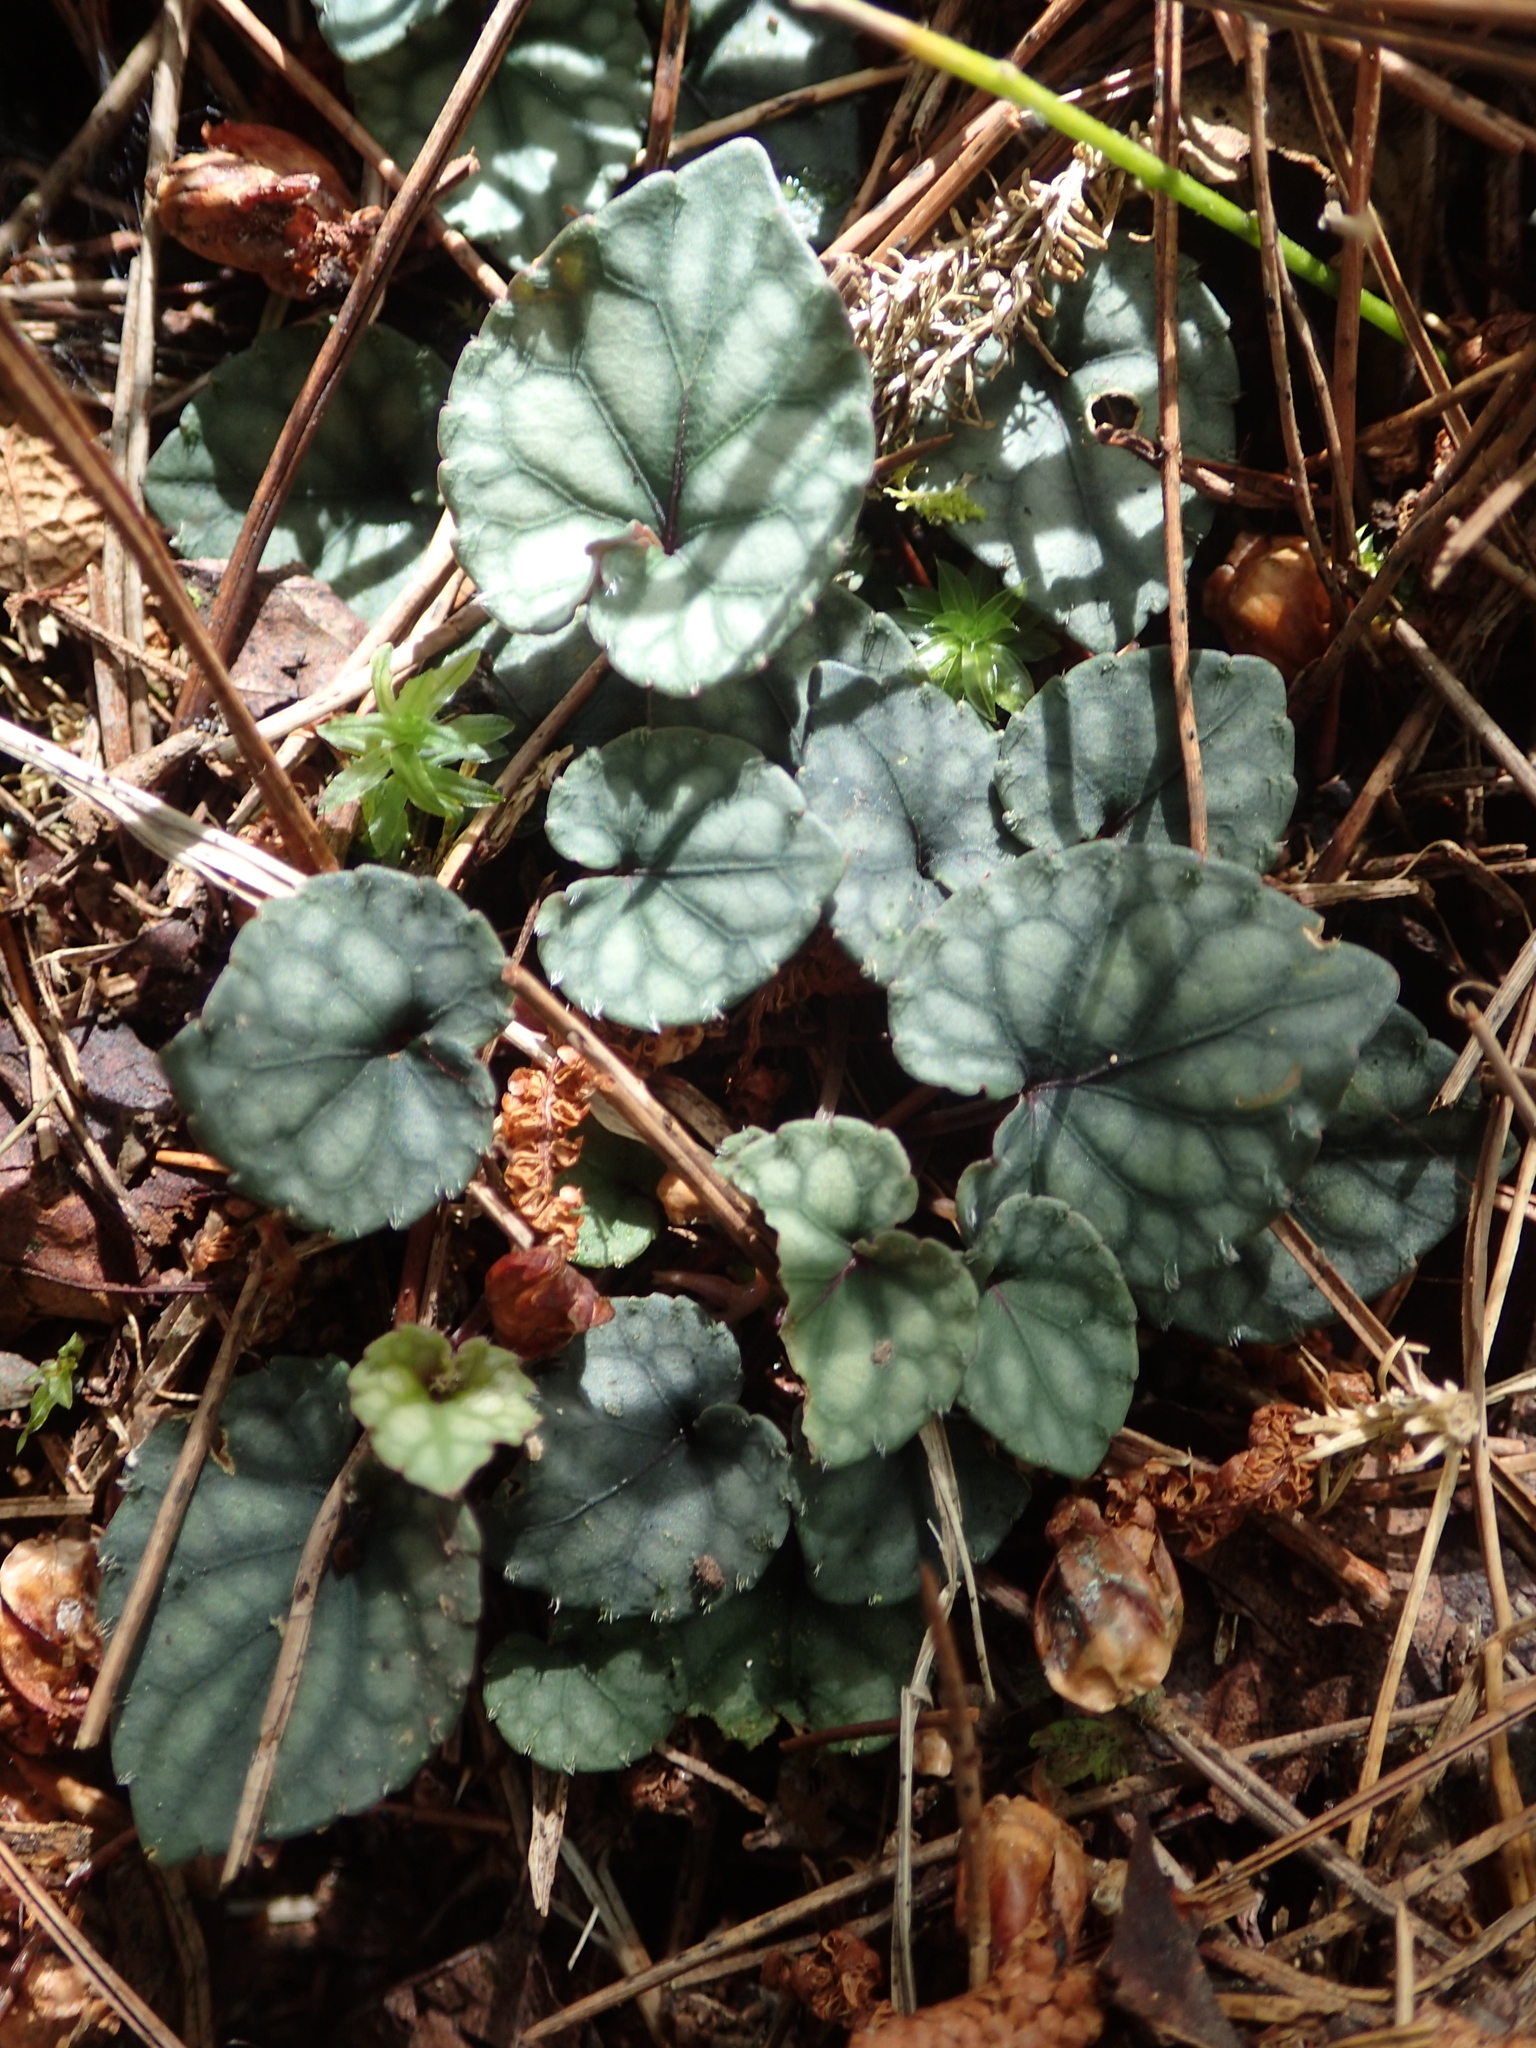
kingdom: Plantae
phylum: Tracheophyta
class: Magnoliopsida
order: Malpighiales
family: Violaceae
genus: Viola
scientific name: Viola formosana
